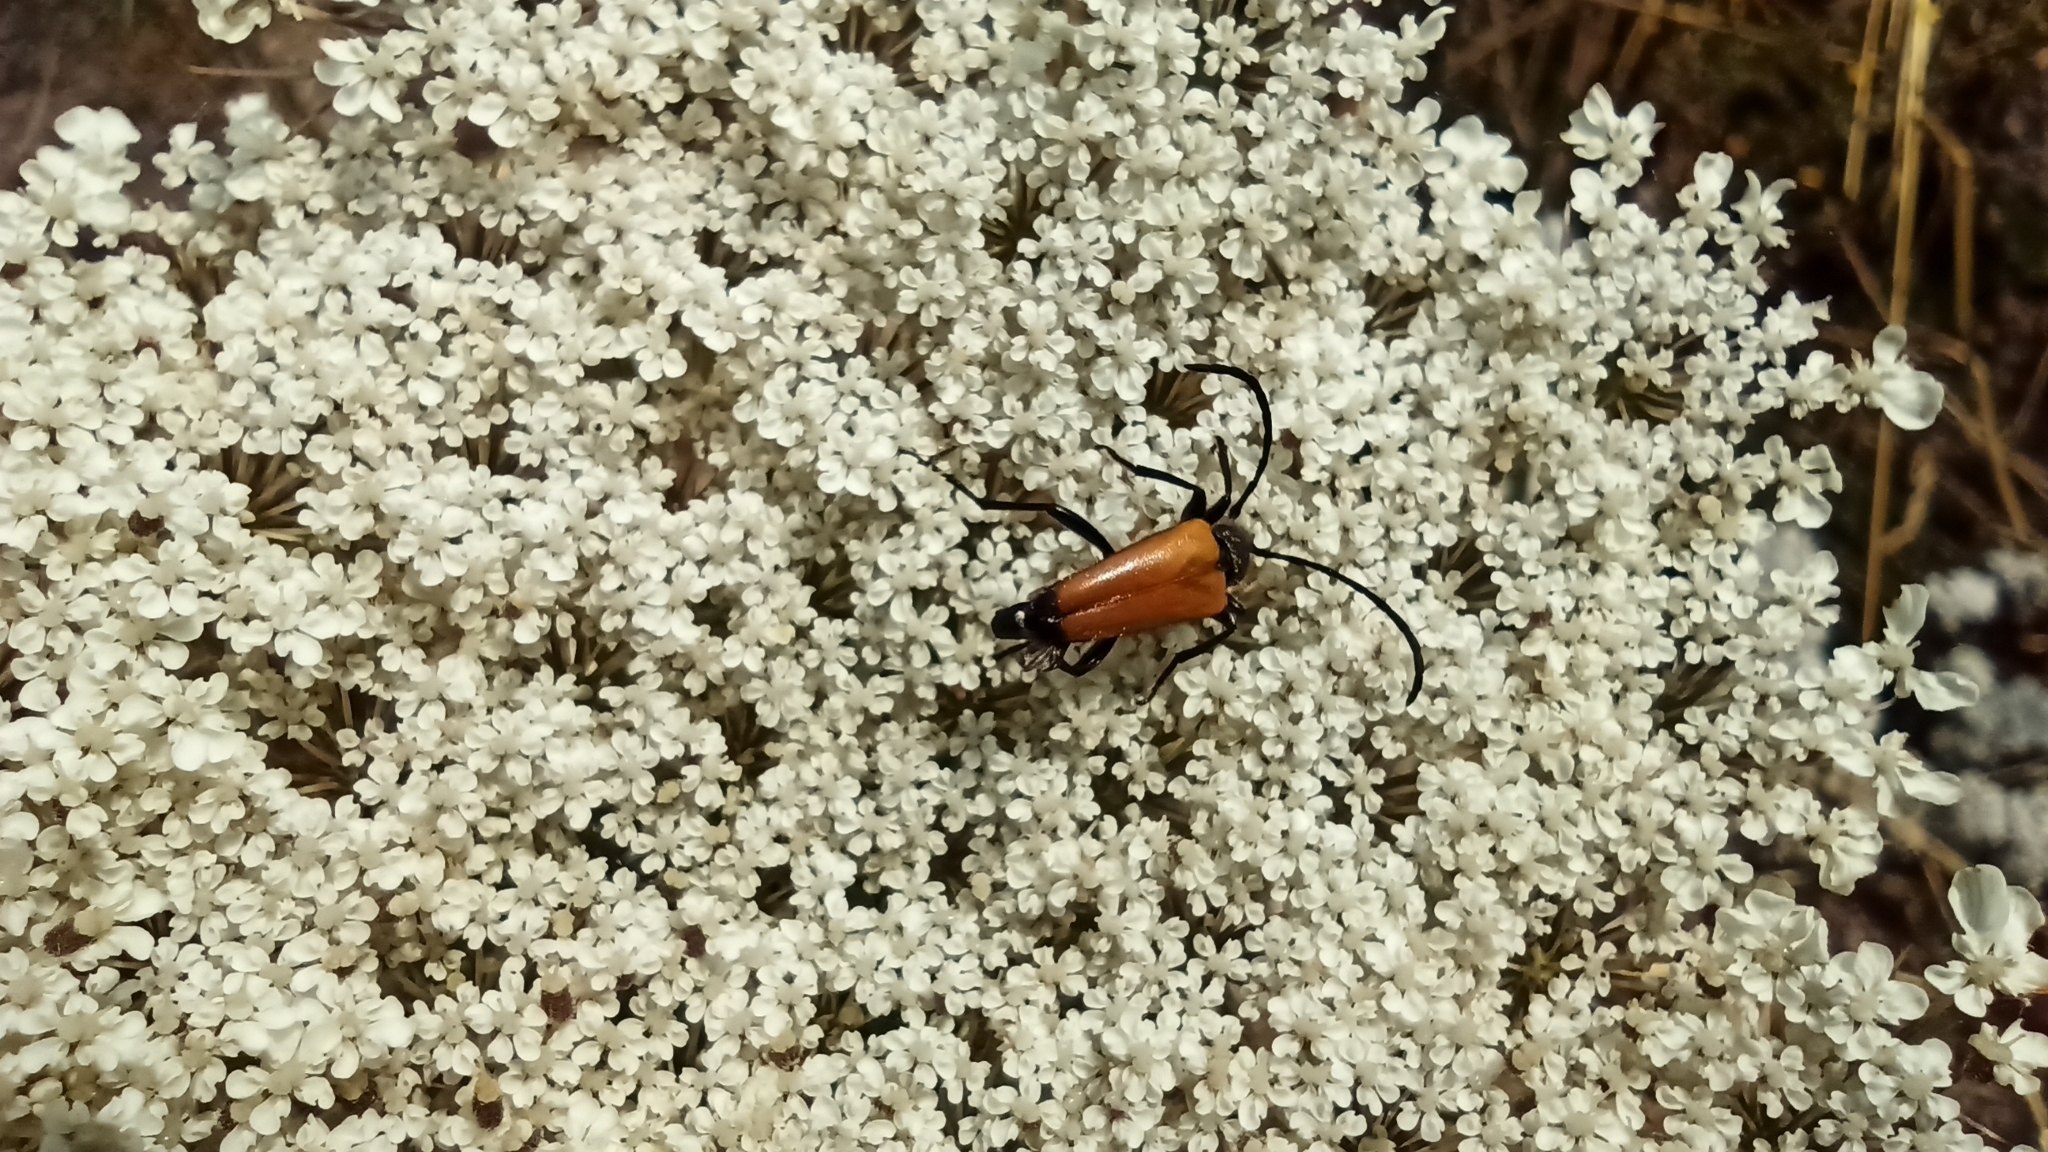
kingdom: Animalia
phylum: Arthropoda
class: Insecta
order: Coleoptera
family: Cerambycidae
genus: Paracorymbia
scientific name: Paracorymbia fulva
